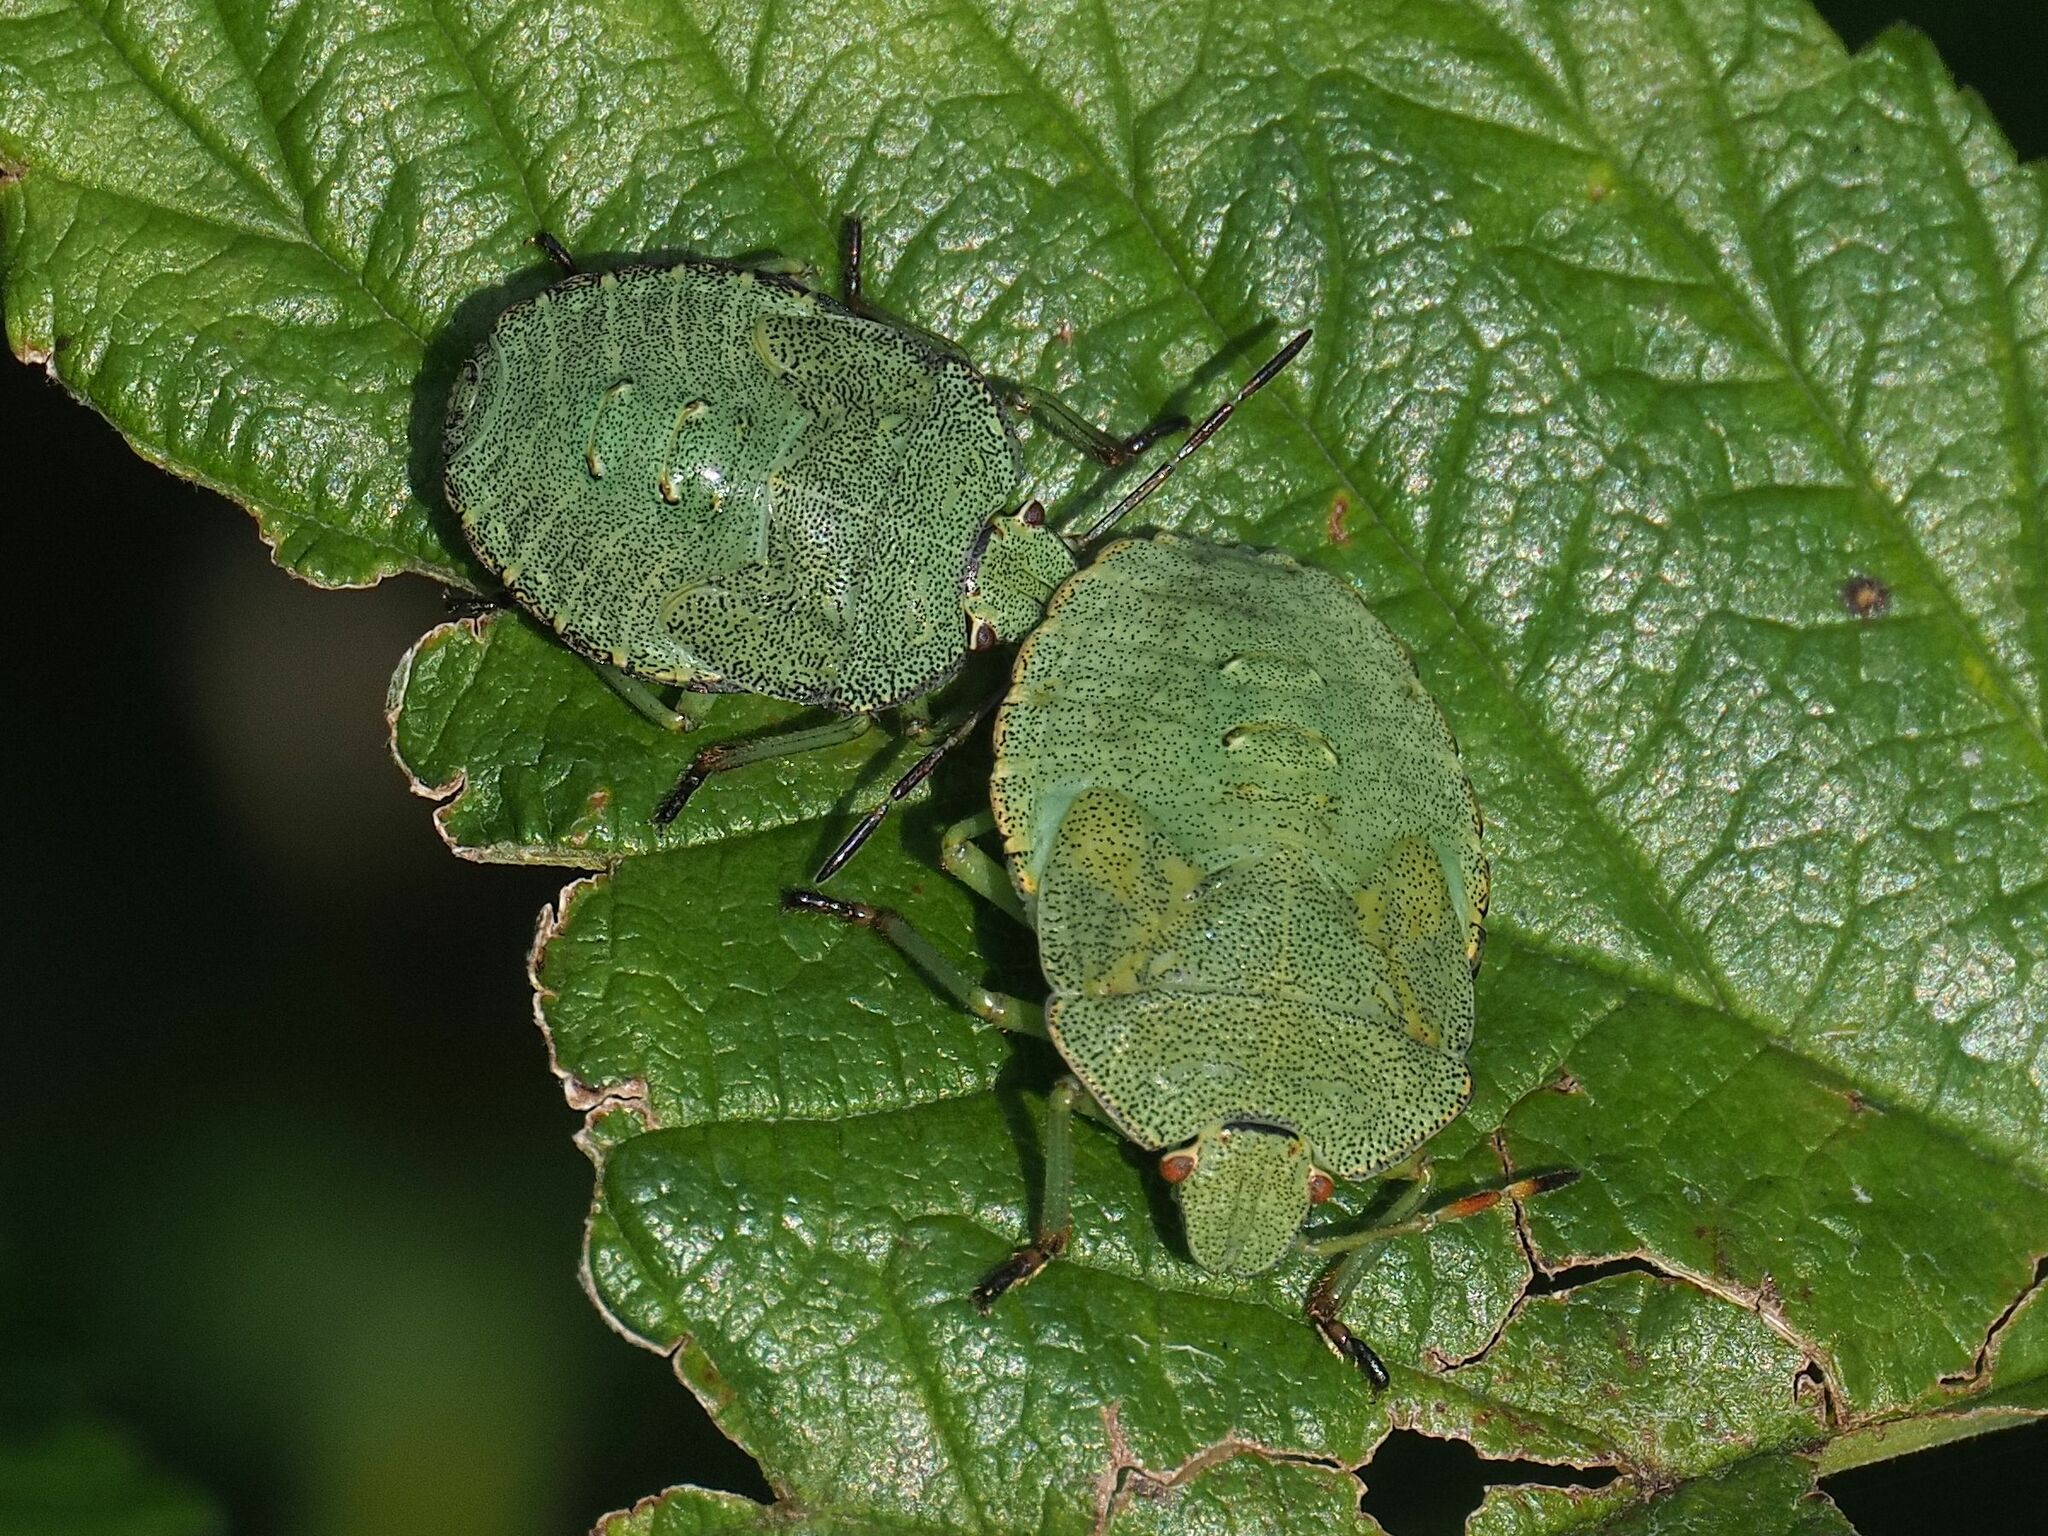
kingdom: Animalia
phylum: Arthropoda
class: Insecta
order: Hemiptera
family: Pentatomidae
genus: Palomena
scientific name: Palomena prasina
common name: Green shieldbug
